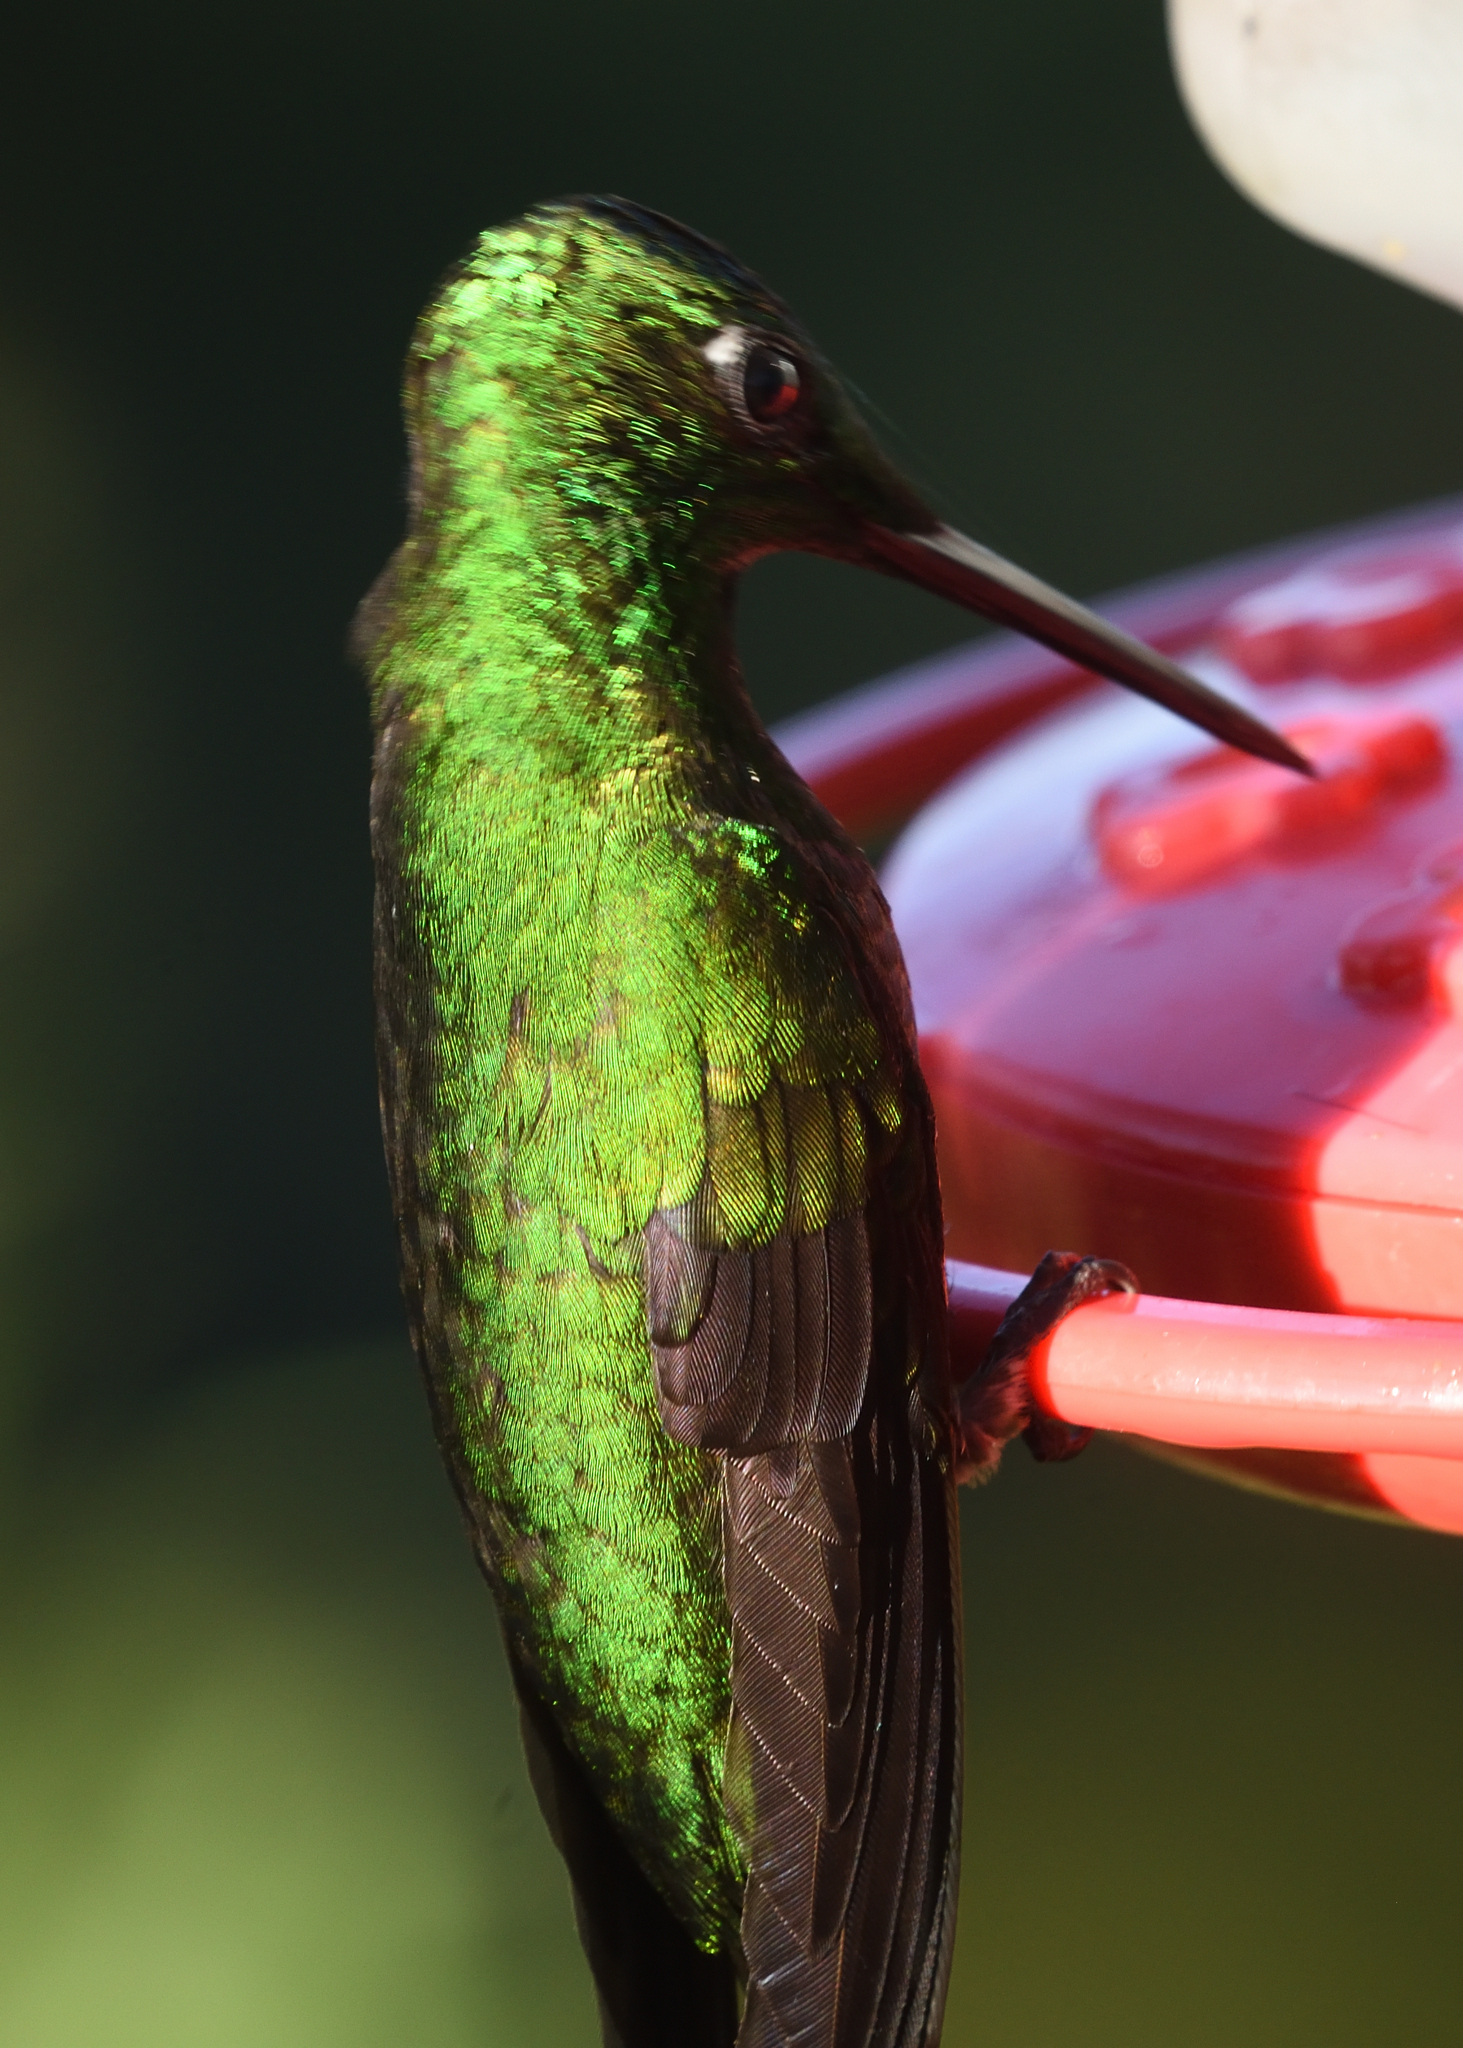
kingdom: Animalia
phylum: Chordata
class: Aves
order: Apodiformes
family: Trochilidae
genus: Heliodoxa
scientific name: Heliodoxa imperatrix
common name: Empress brilliant
